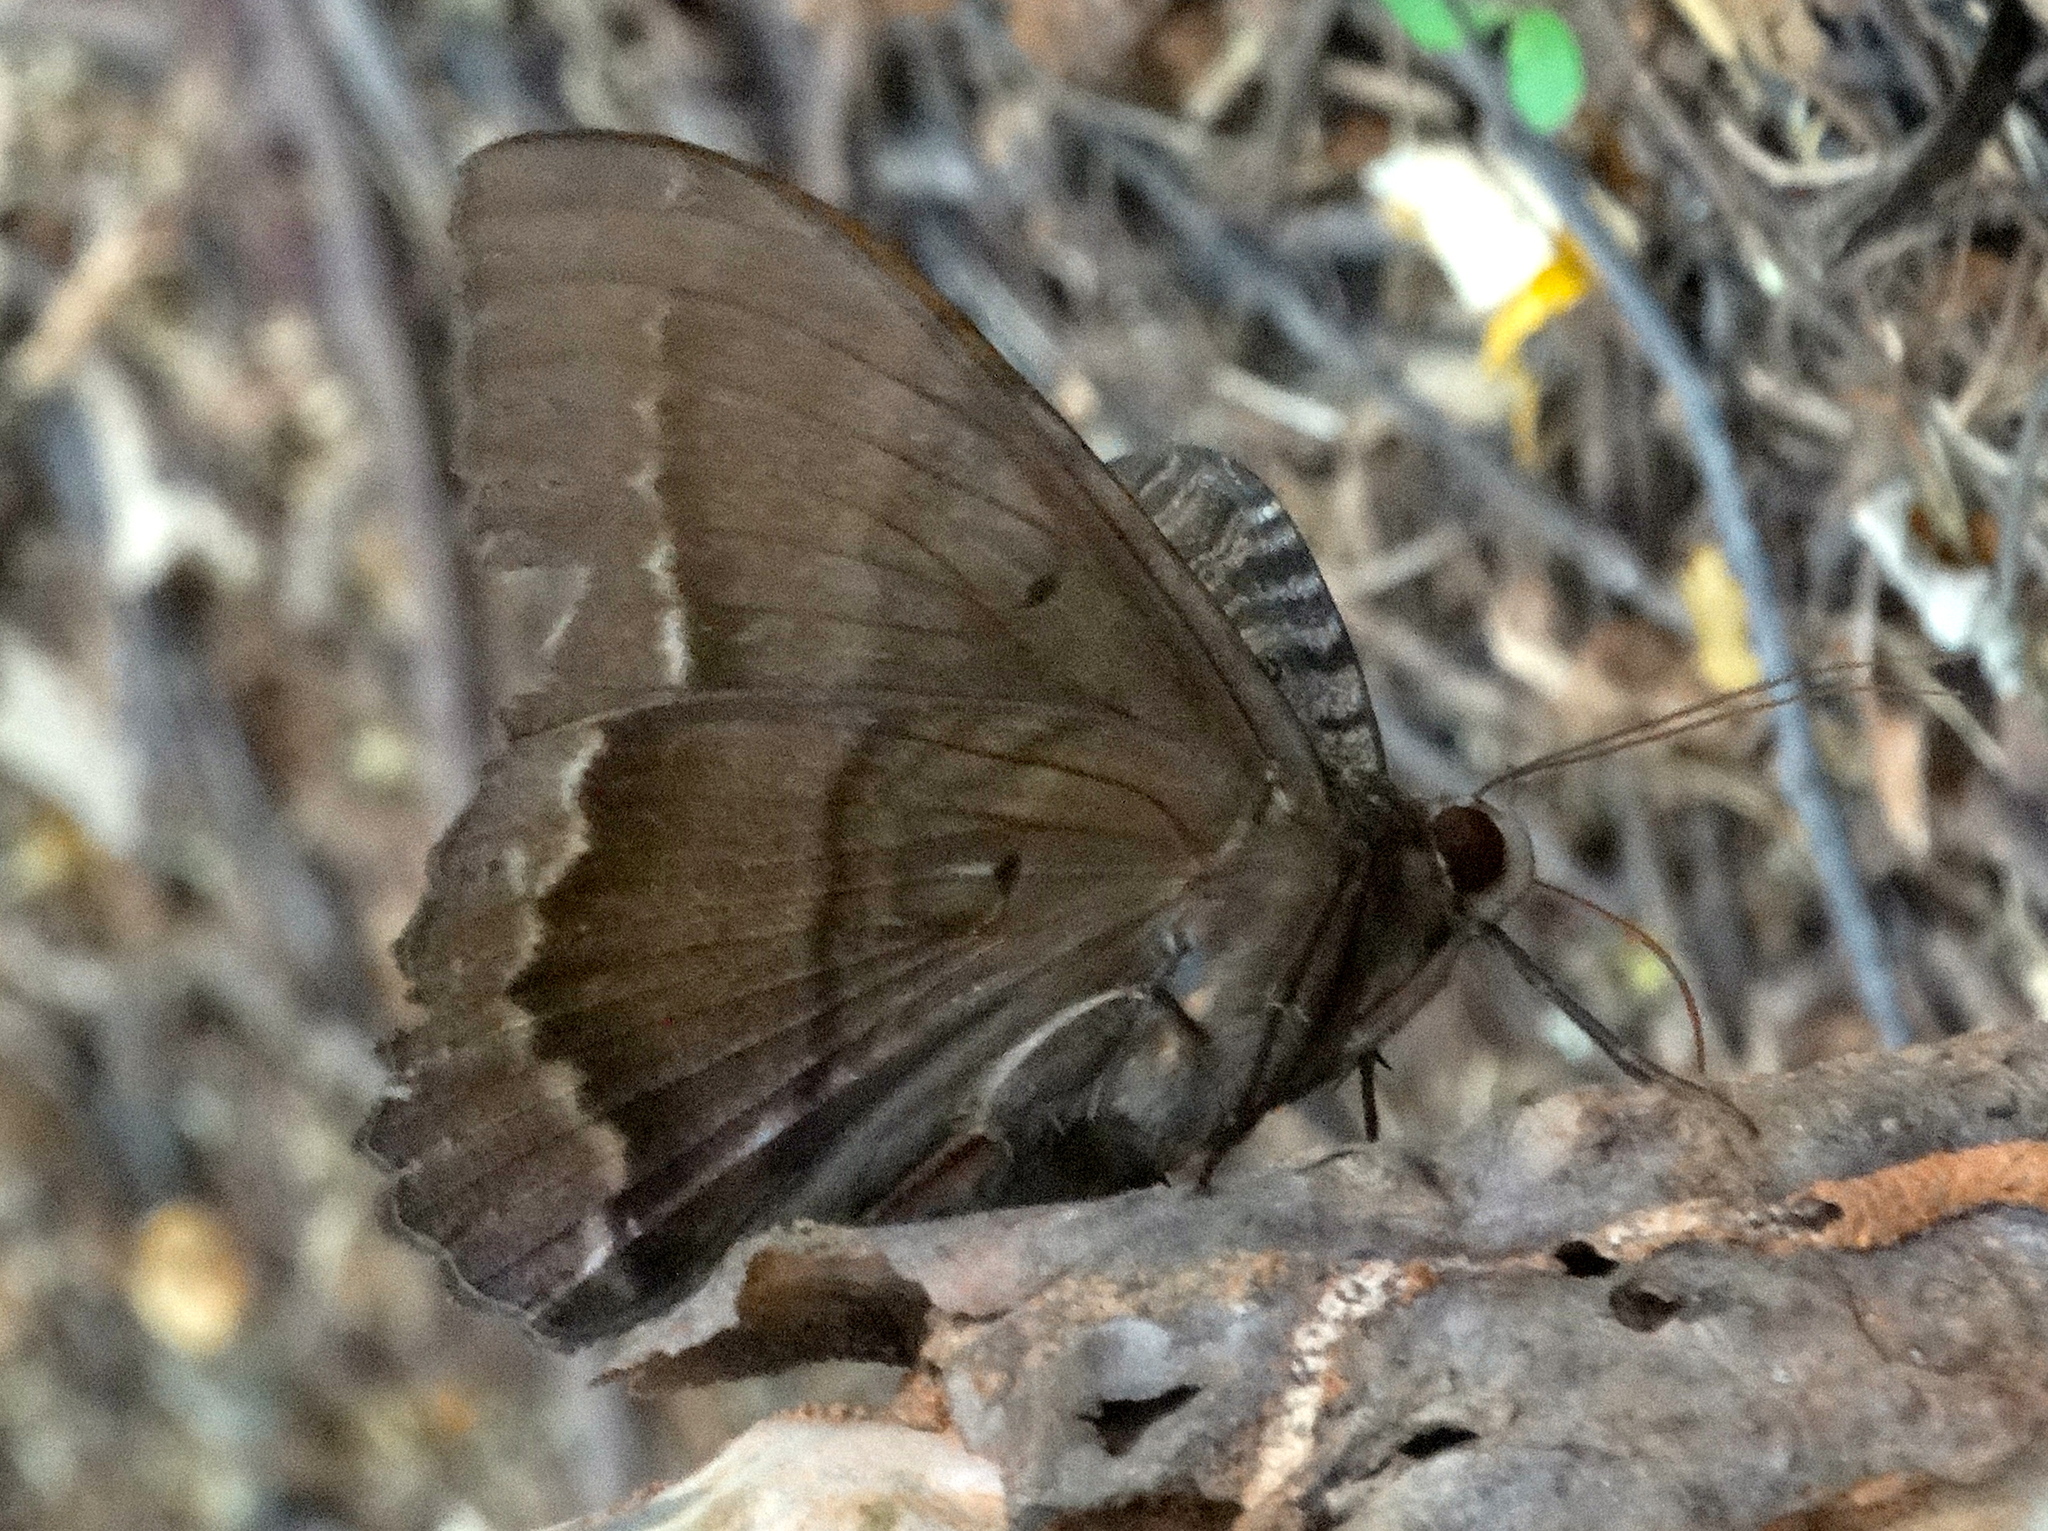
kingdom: Animalia
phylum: Arthropoda
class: Insecta
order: Lepidoptera
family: Erebidae
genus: Ascalapha
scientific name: Ascalapha odorata
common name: Black witch
